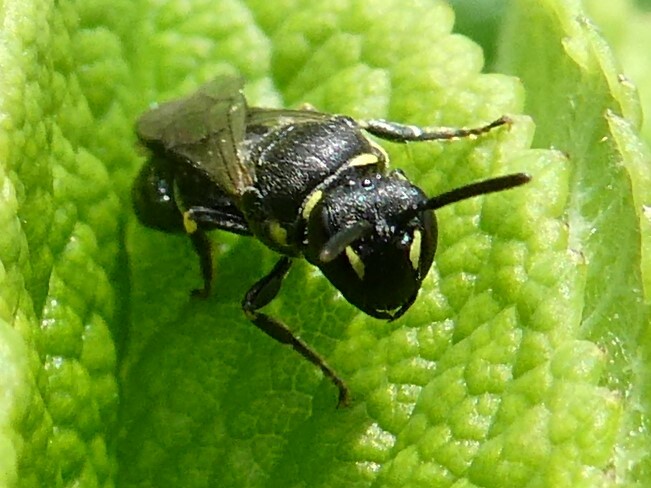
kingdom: Animalia
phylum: Arthropoda
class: Insecta
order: Hymenoptera
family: Colletidae
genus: Hylaeus
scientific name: Hylaeus modestus
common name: Yellow-faced bee
